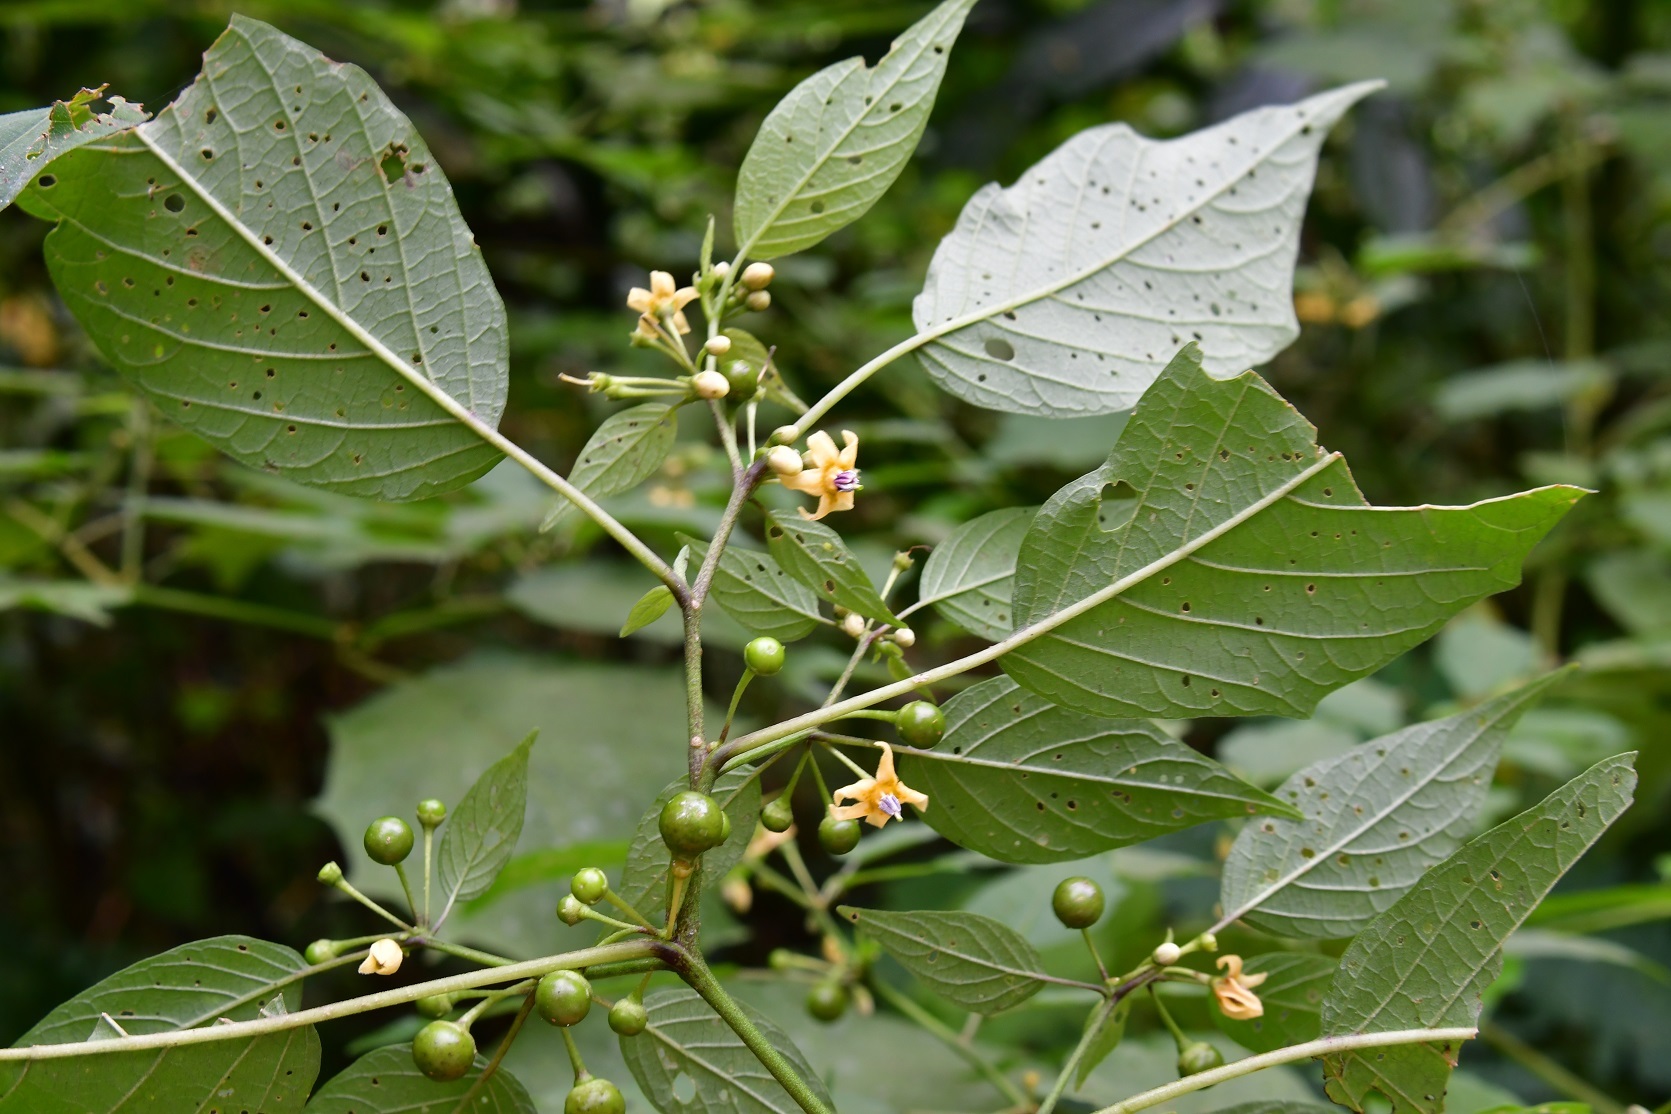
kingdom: Plantae
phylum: Tracheophyta
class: Magnoliopsida
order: Solanales
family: Solanaceae
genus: Witheringia
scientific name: Witheringia mexicana
